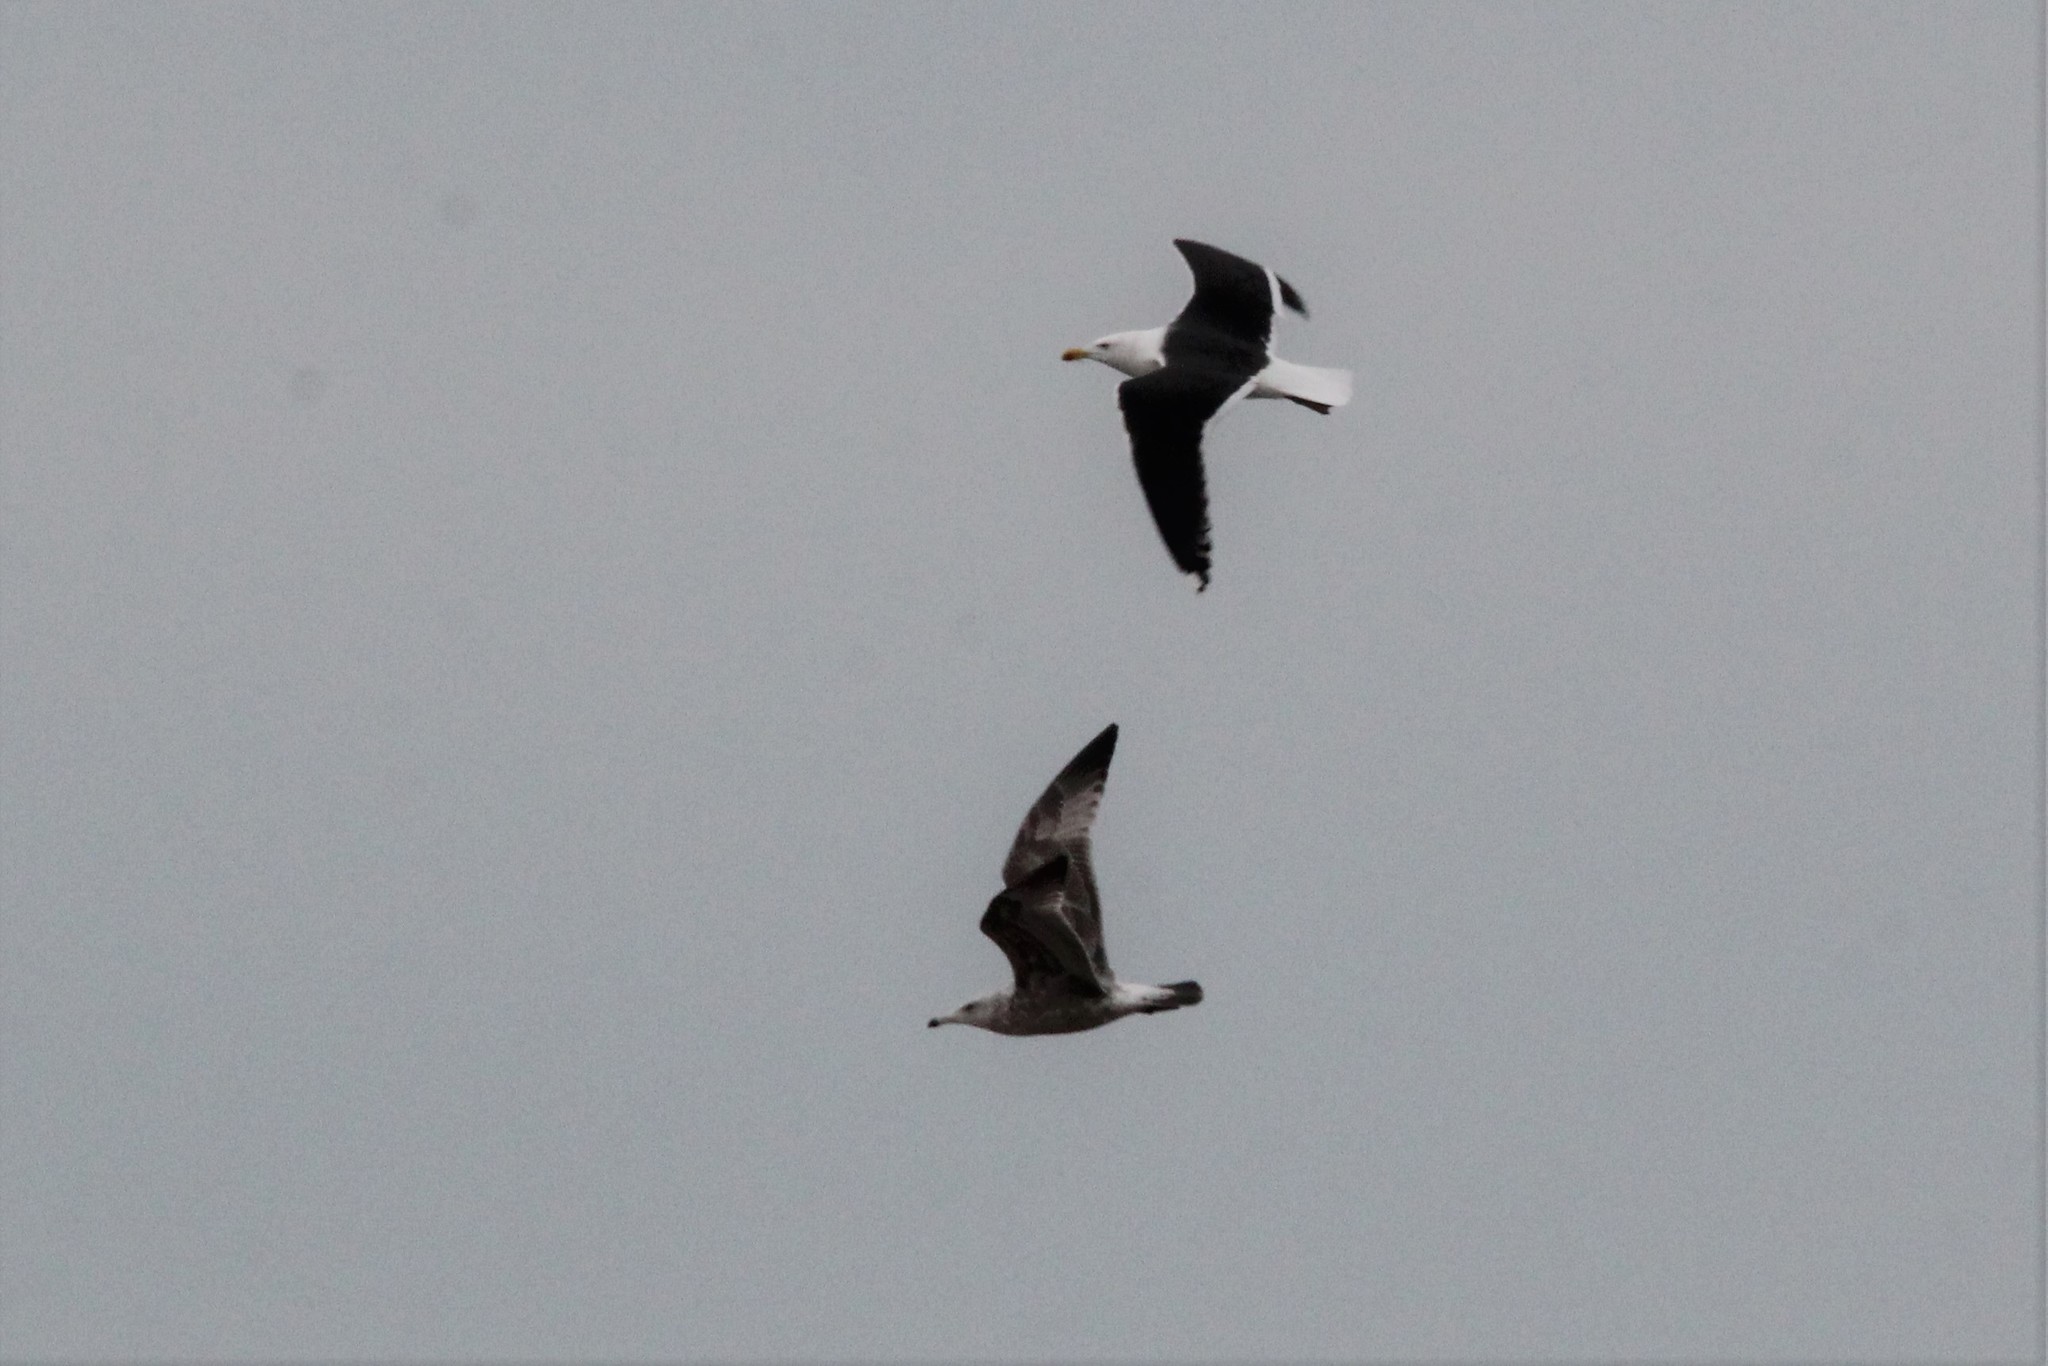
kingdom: Animalia
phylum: Chordata
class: Aves
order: Charadriiformes
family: Laridae
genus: Larus
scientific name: Larus marinus
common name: Great black-backed gull
